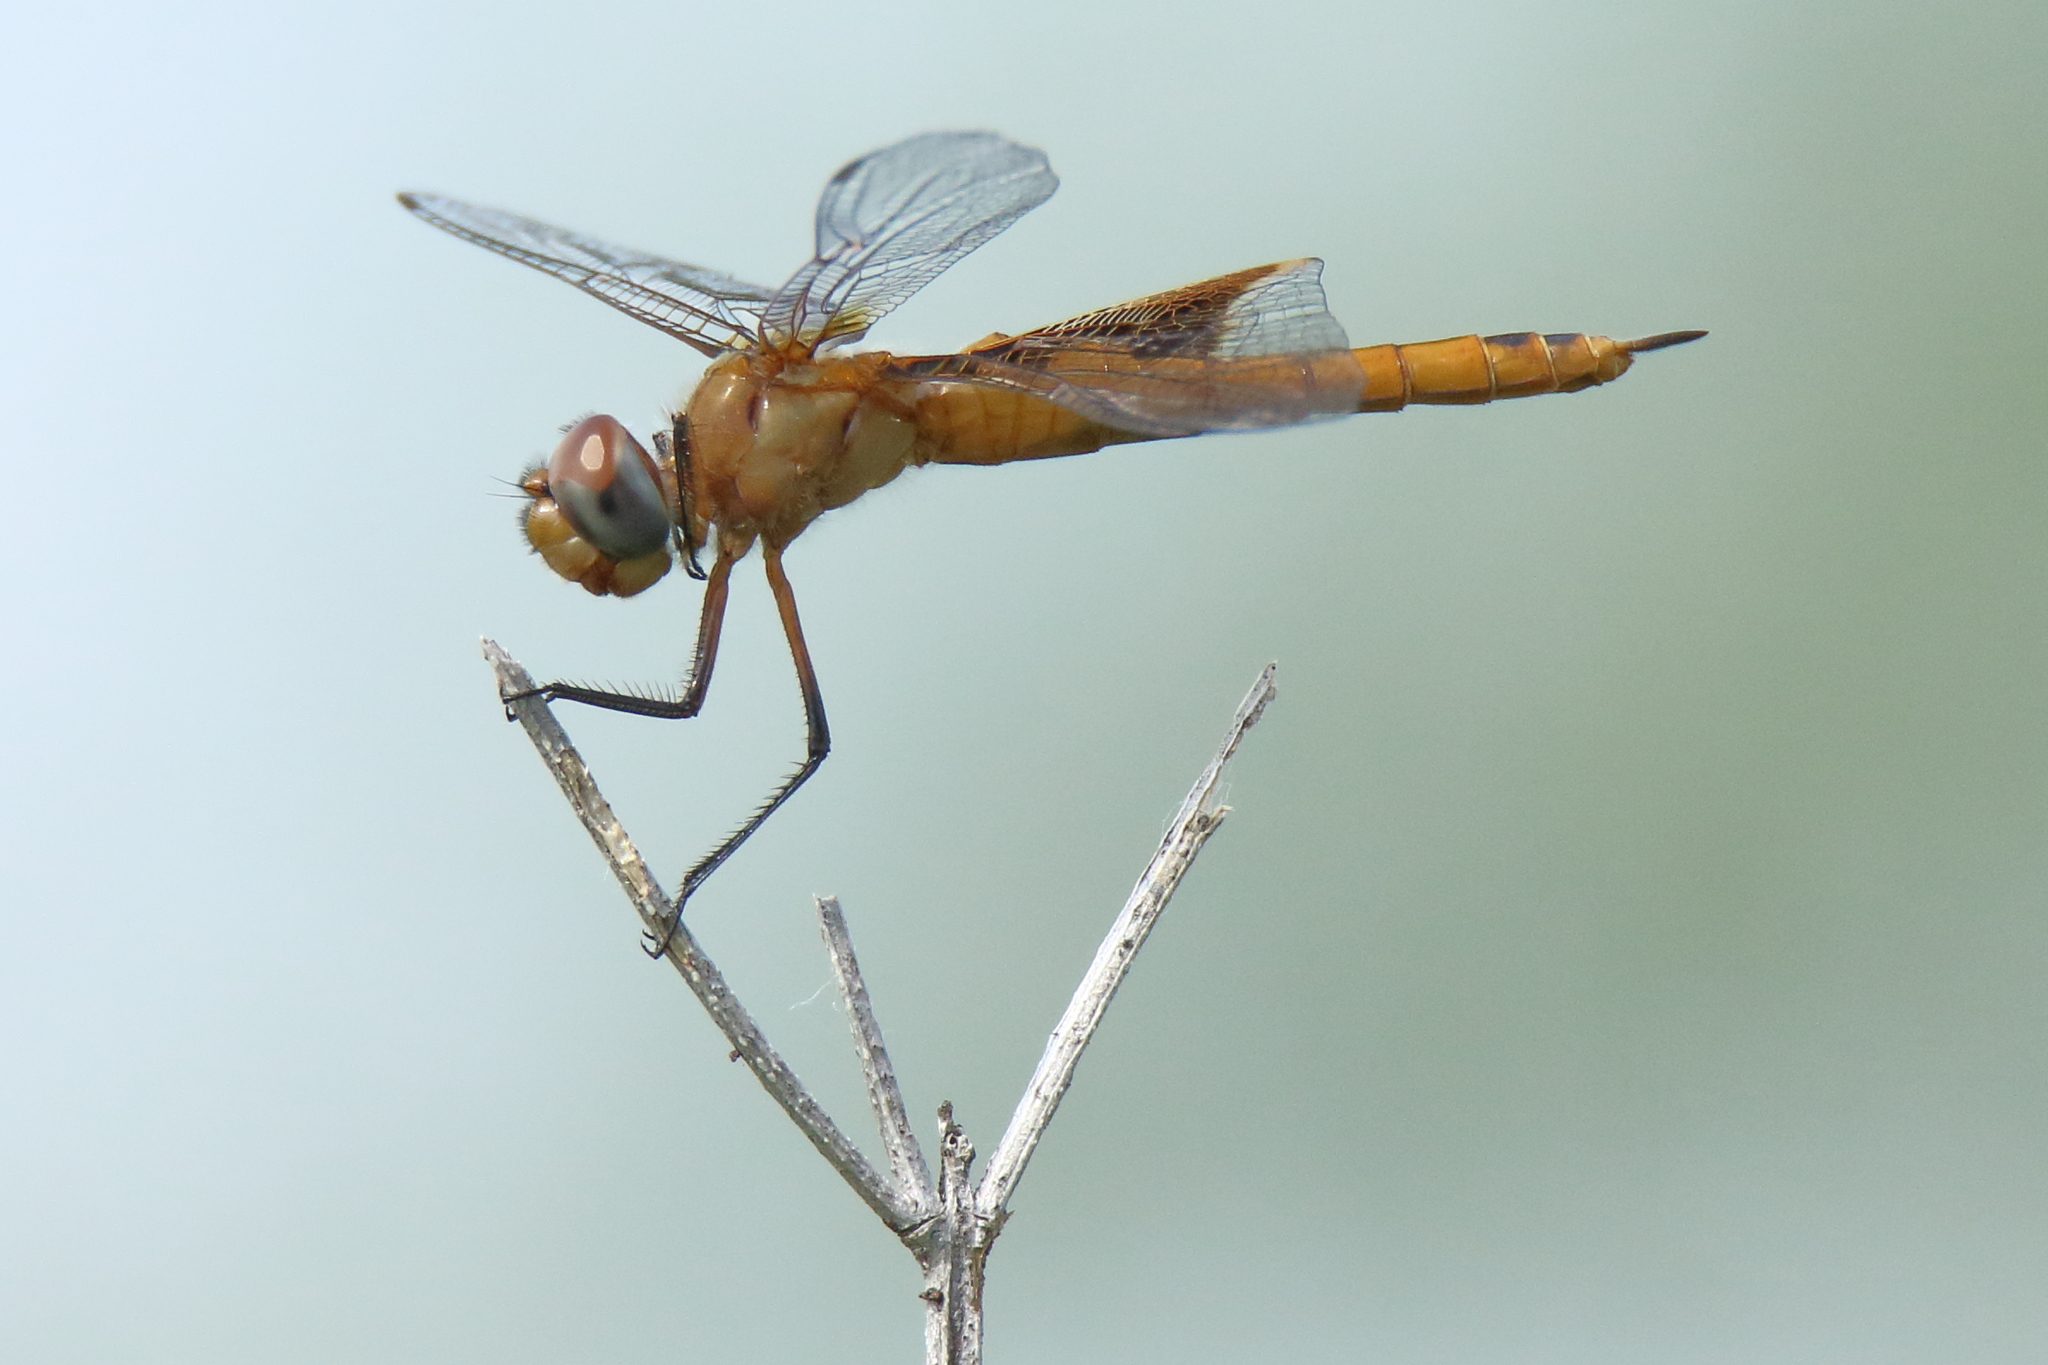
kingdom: Animalia
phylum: Arthropoda
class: Insecta
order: Odonata
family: Libellulidae
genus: Tramea
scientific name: Tramea onusta
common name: Red saddlebags
